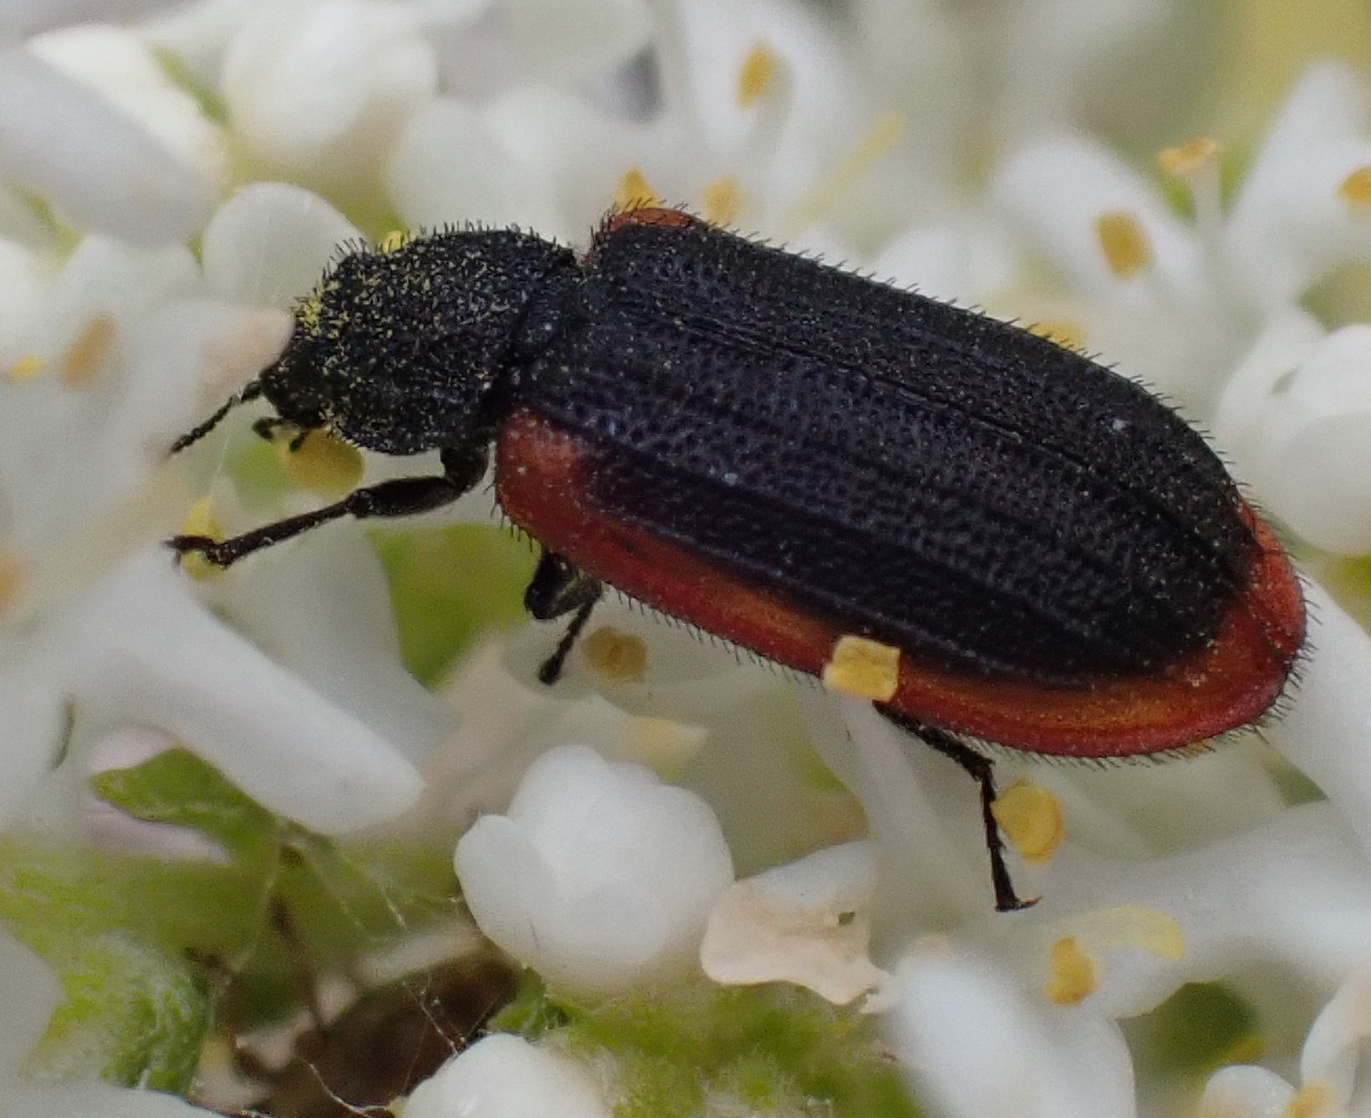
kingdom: Animalia
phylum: Arthropoda
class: Insecta
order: Coleoptera
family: Melyridae
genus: Melyris
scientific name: Melyris
